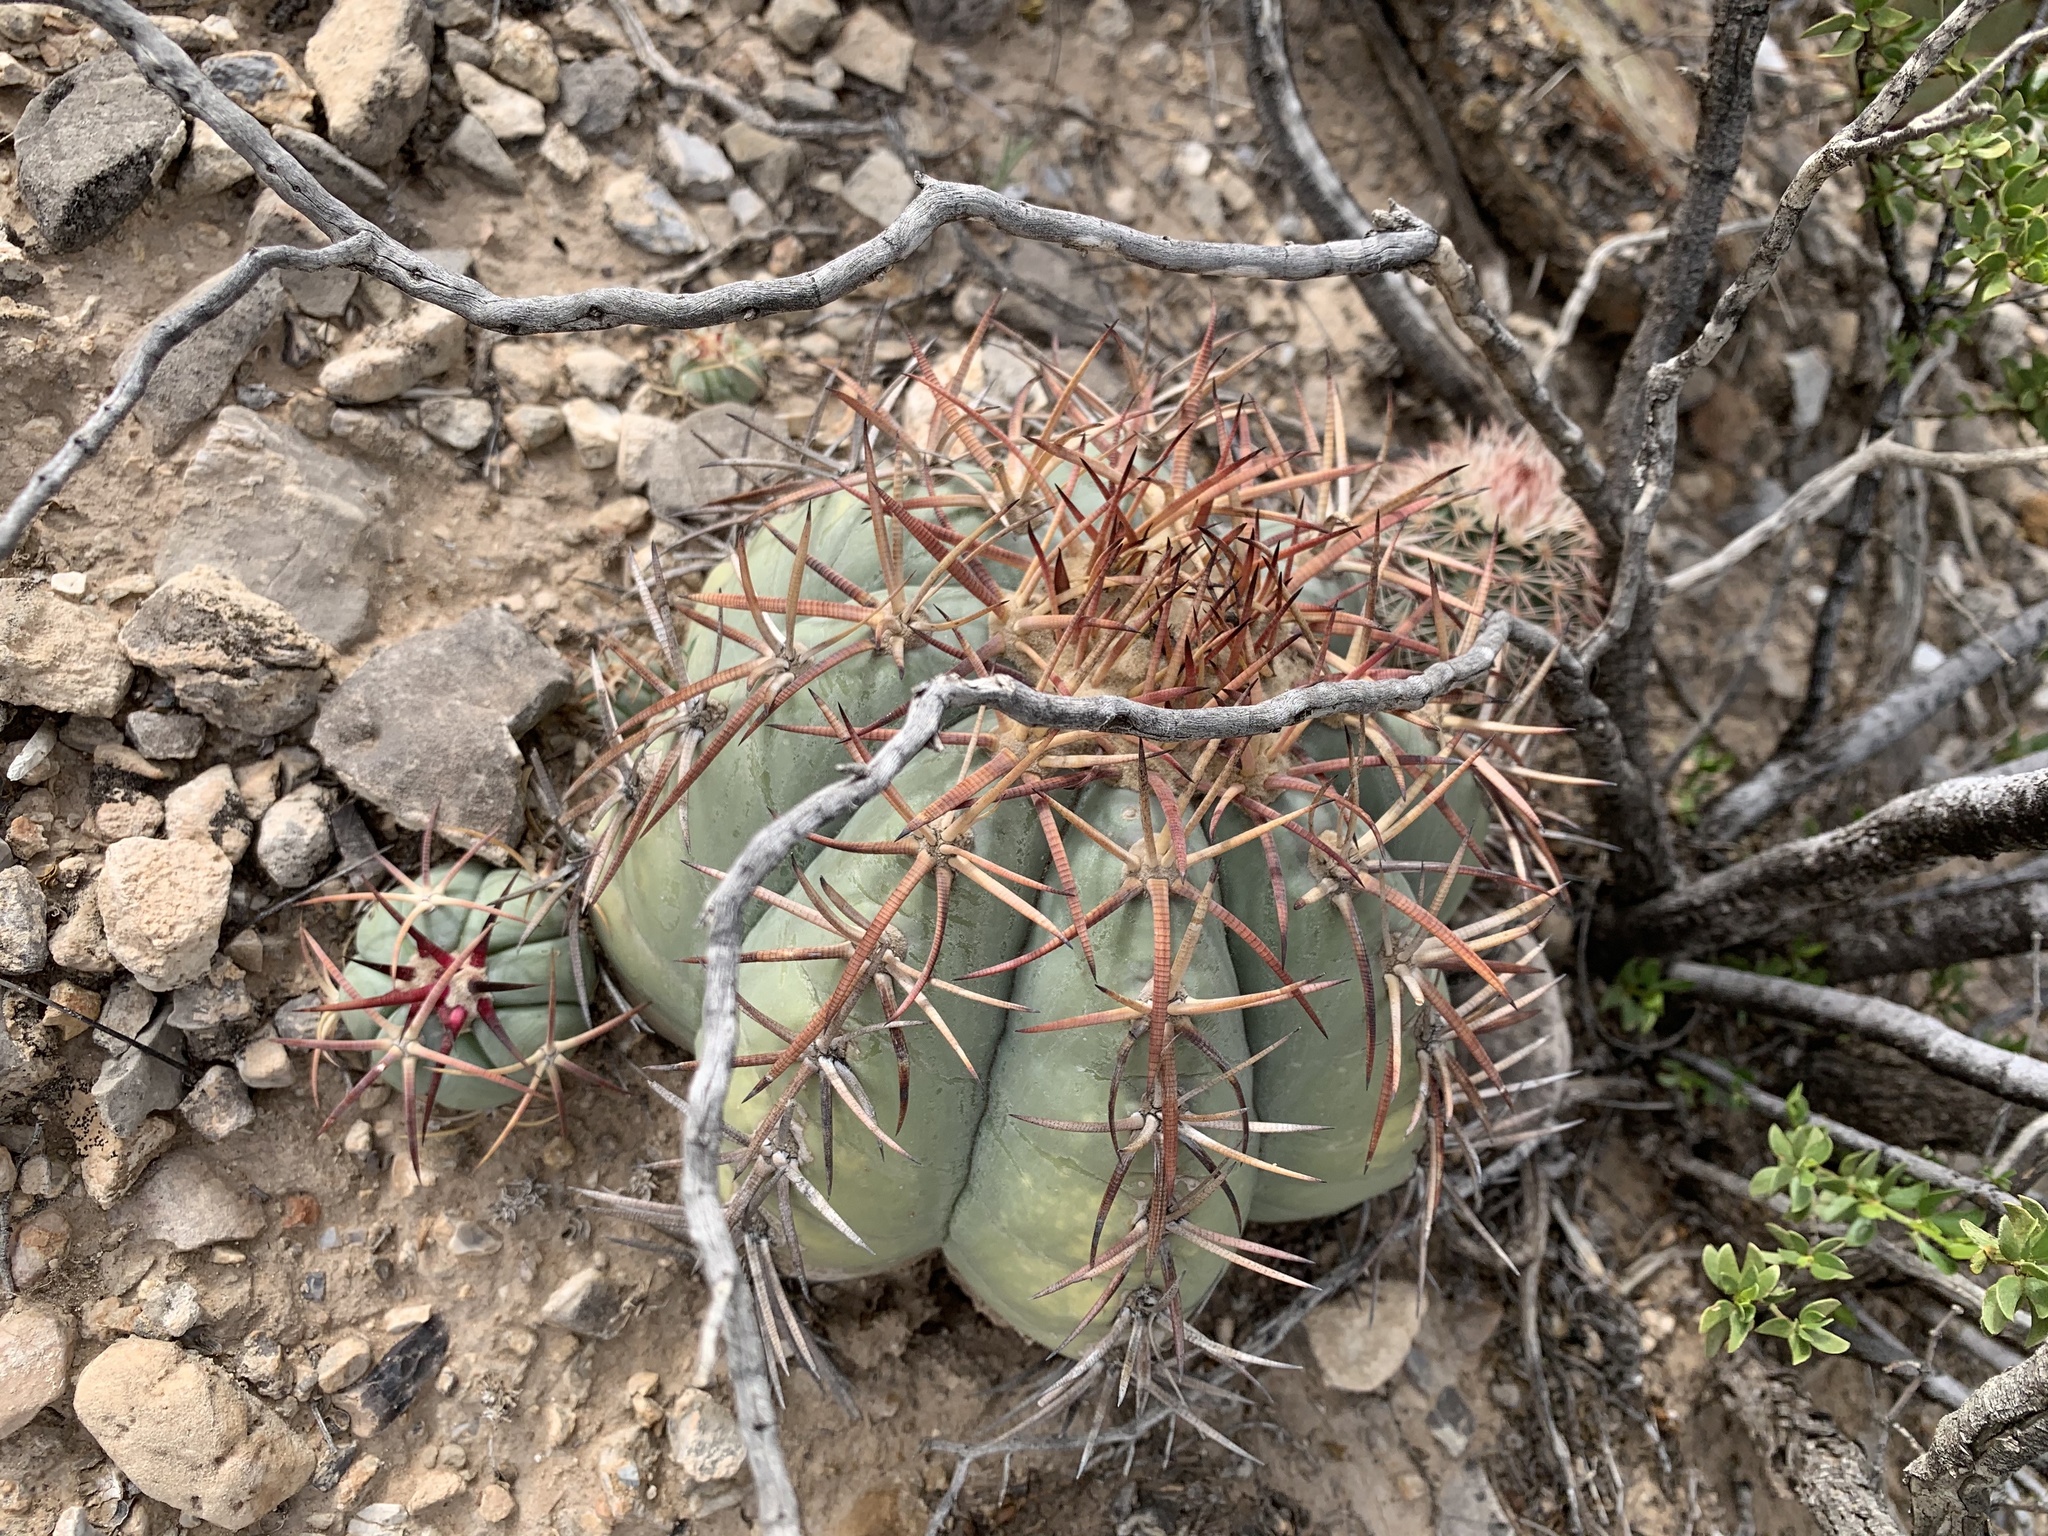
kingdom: Plantae
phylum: Tracheophyta
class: Magnoliopsida
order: Caryophyllales
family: Cactaceae
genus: Echinocactus
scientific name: Echinocactus horizonthalonius
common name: Devilshead
